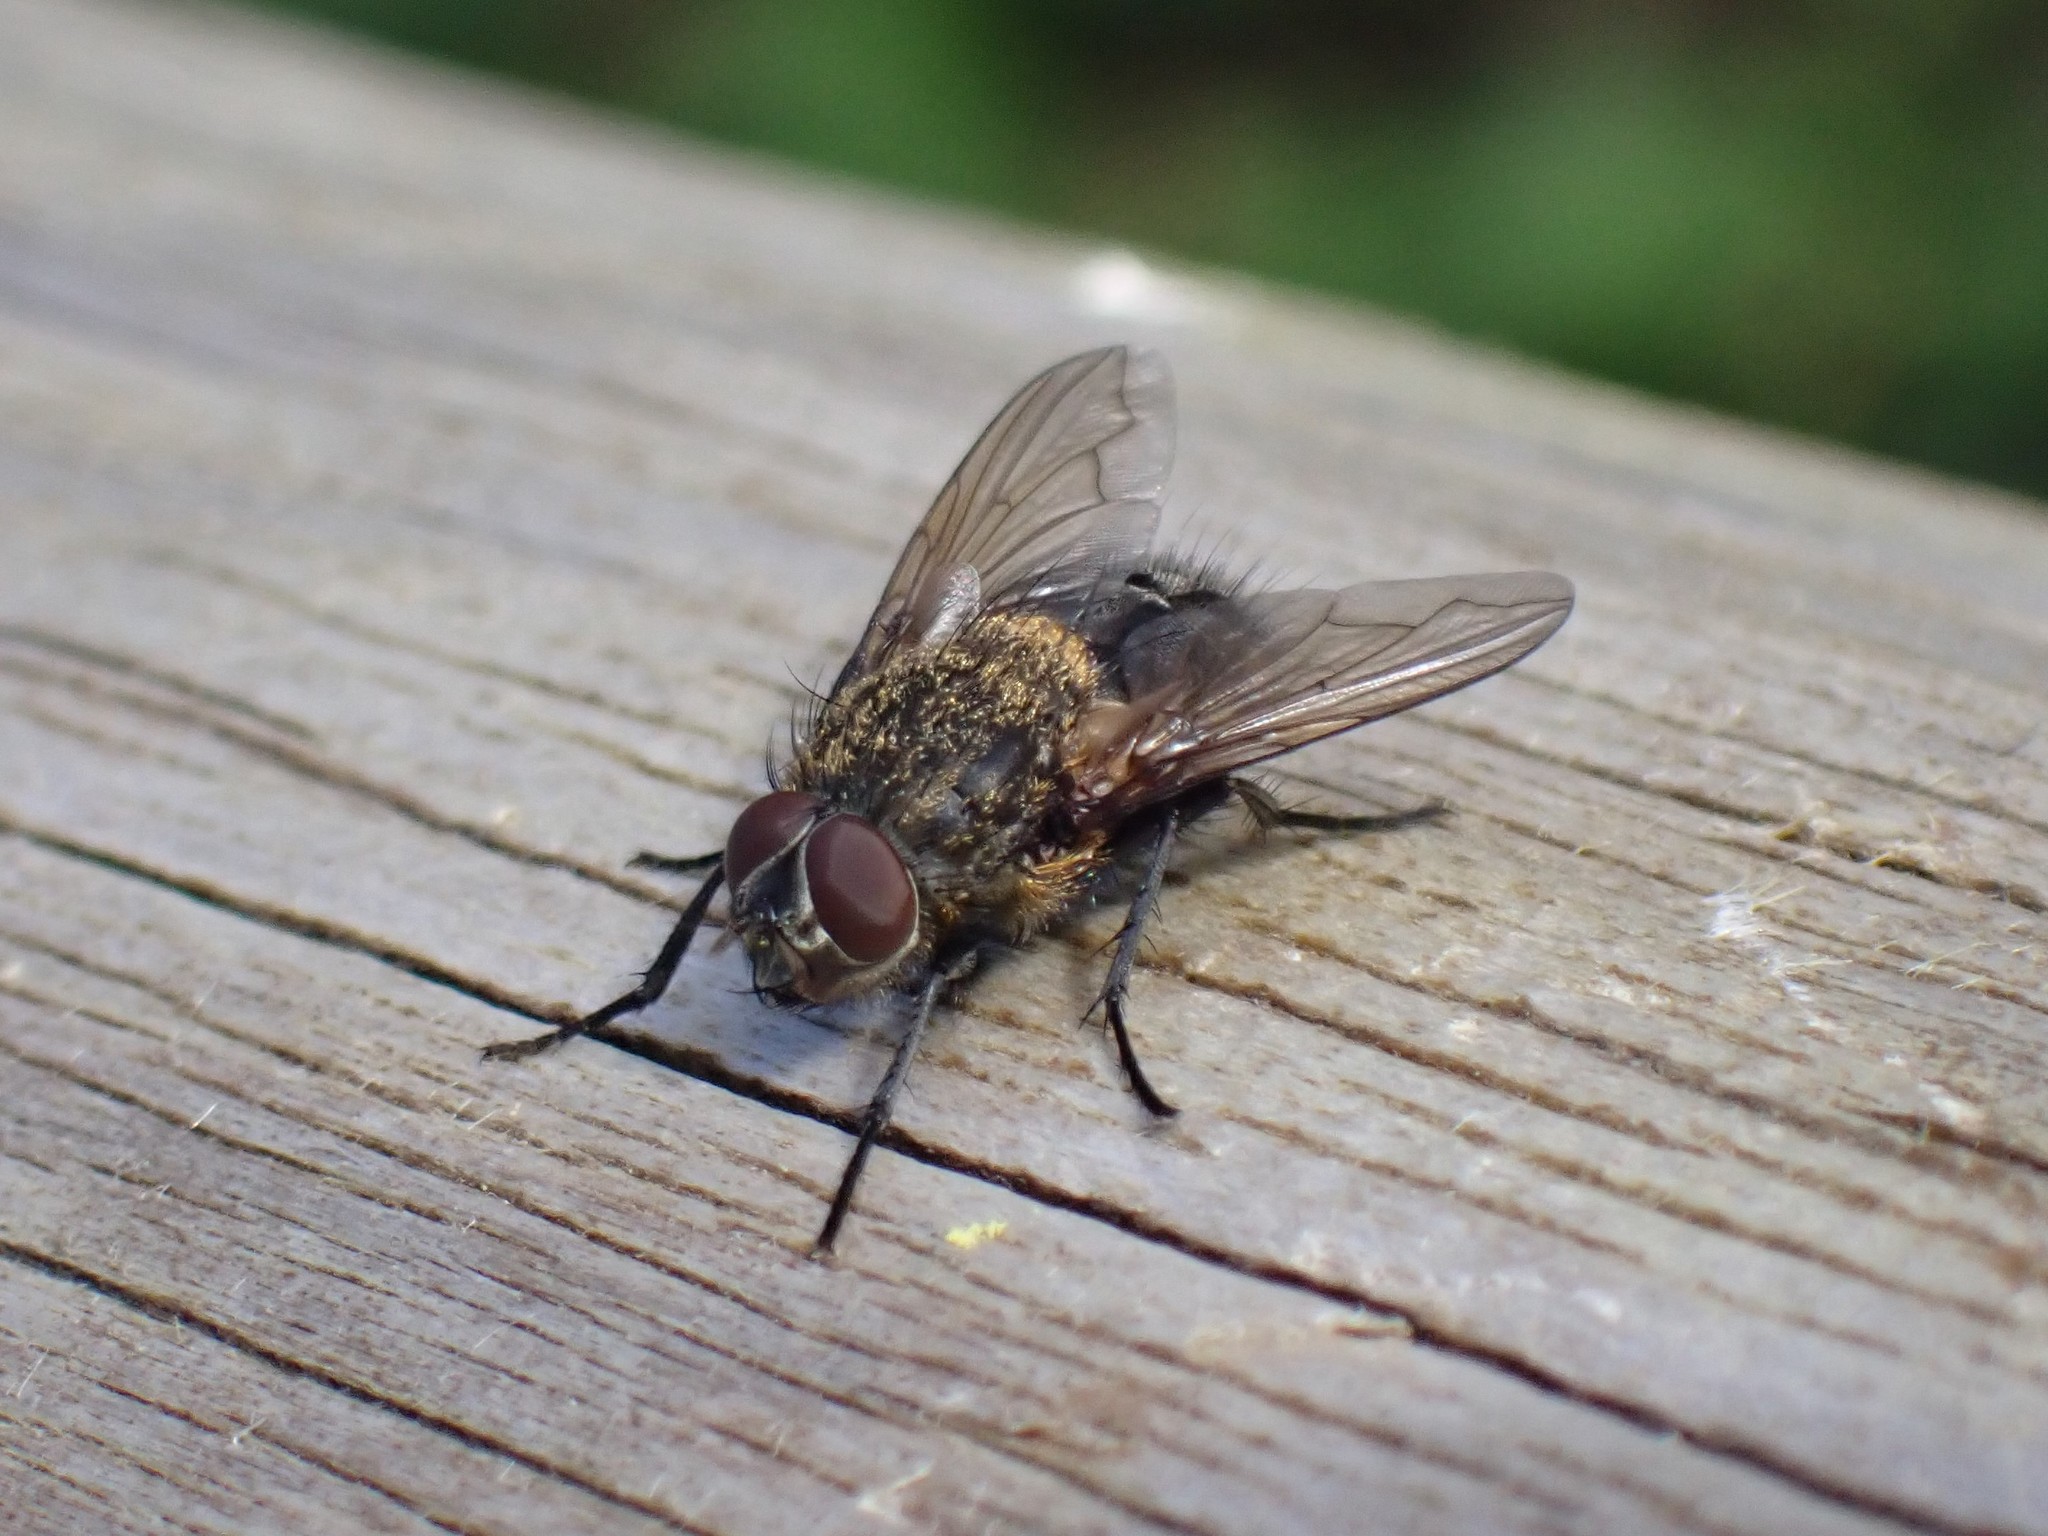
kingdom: Animalia
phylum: Arthropoda
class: Insecta
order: Diptera
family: Polleniidae
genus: Pollenia
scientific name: Pollenia
